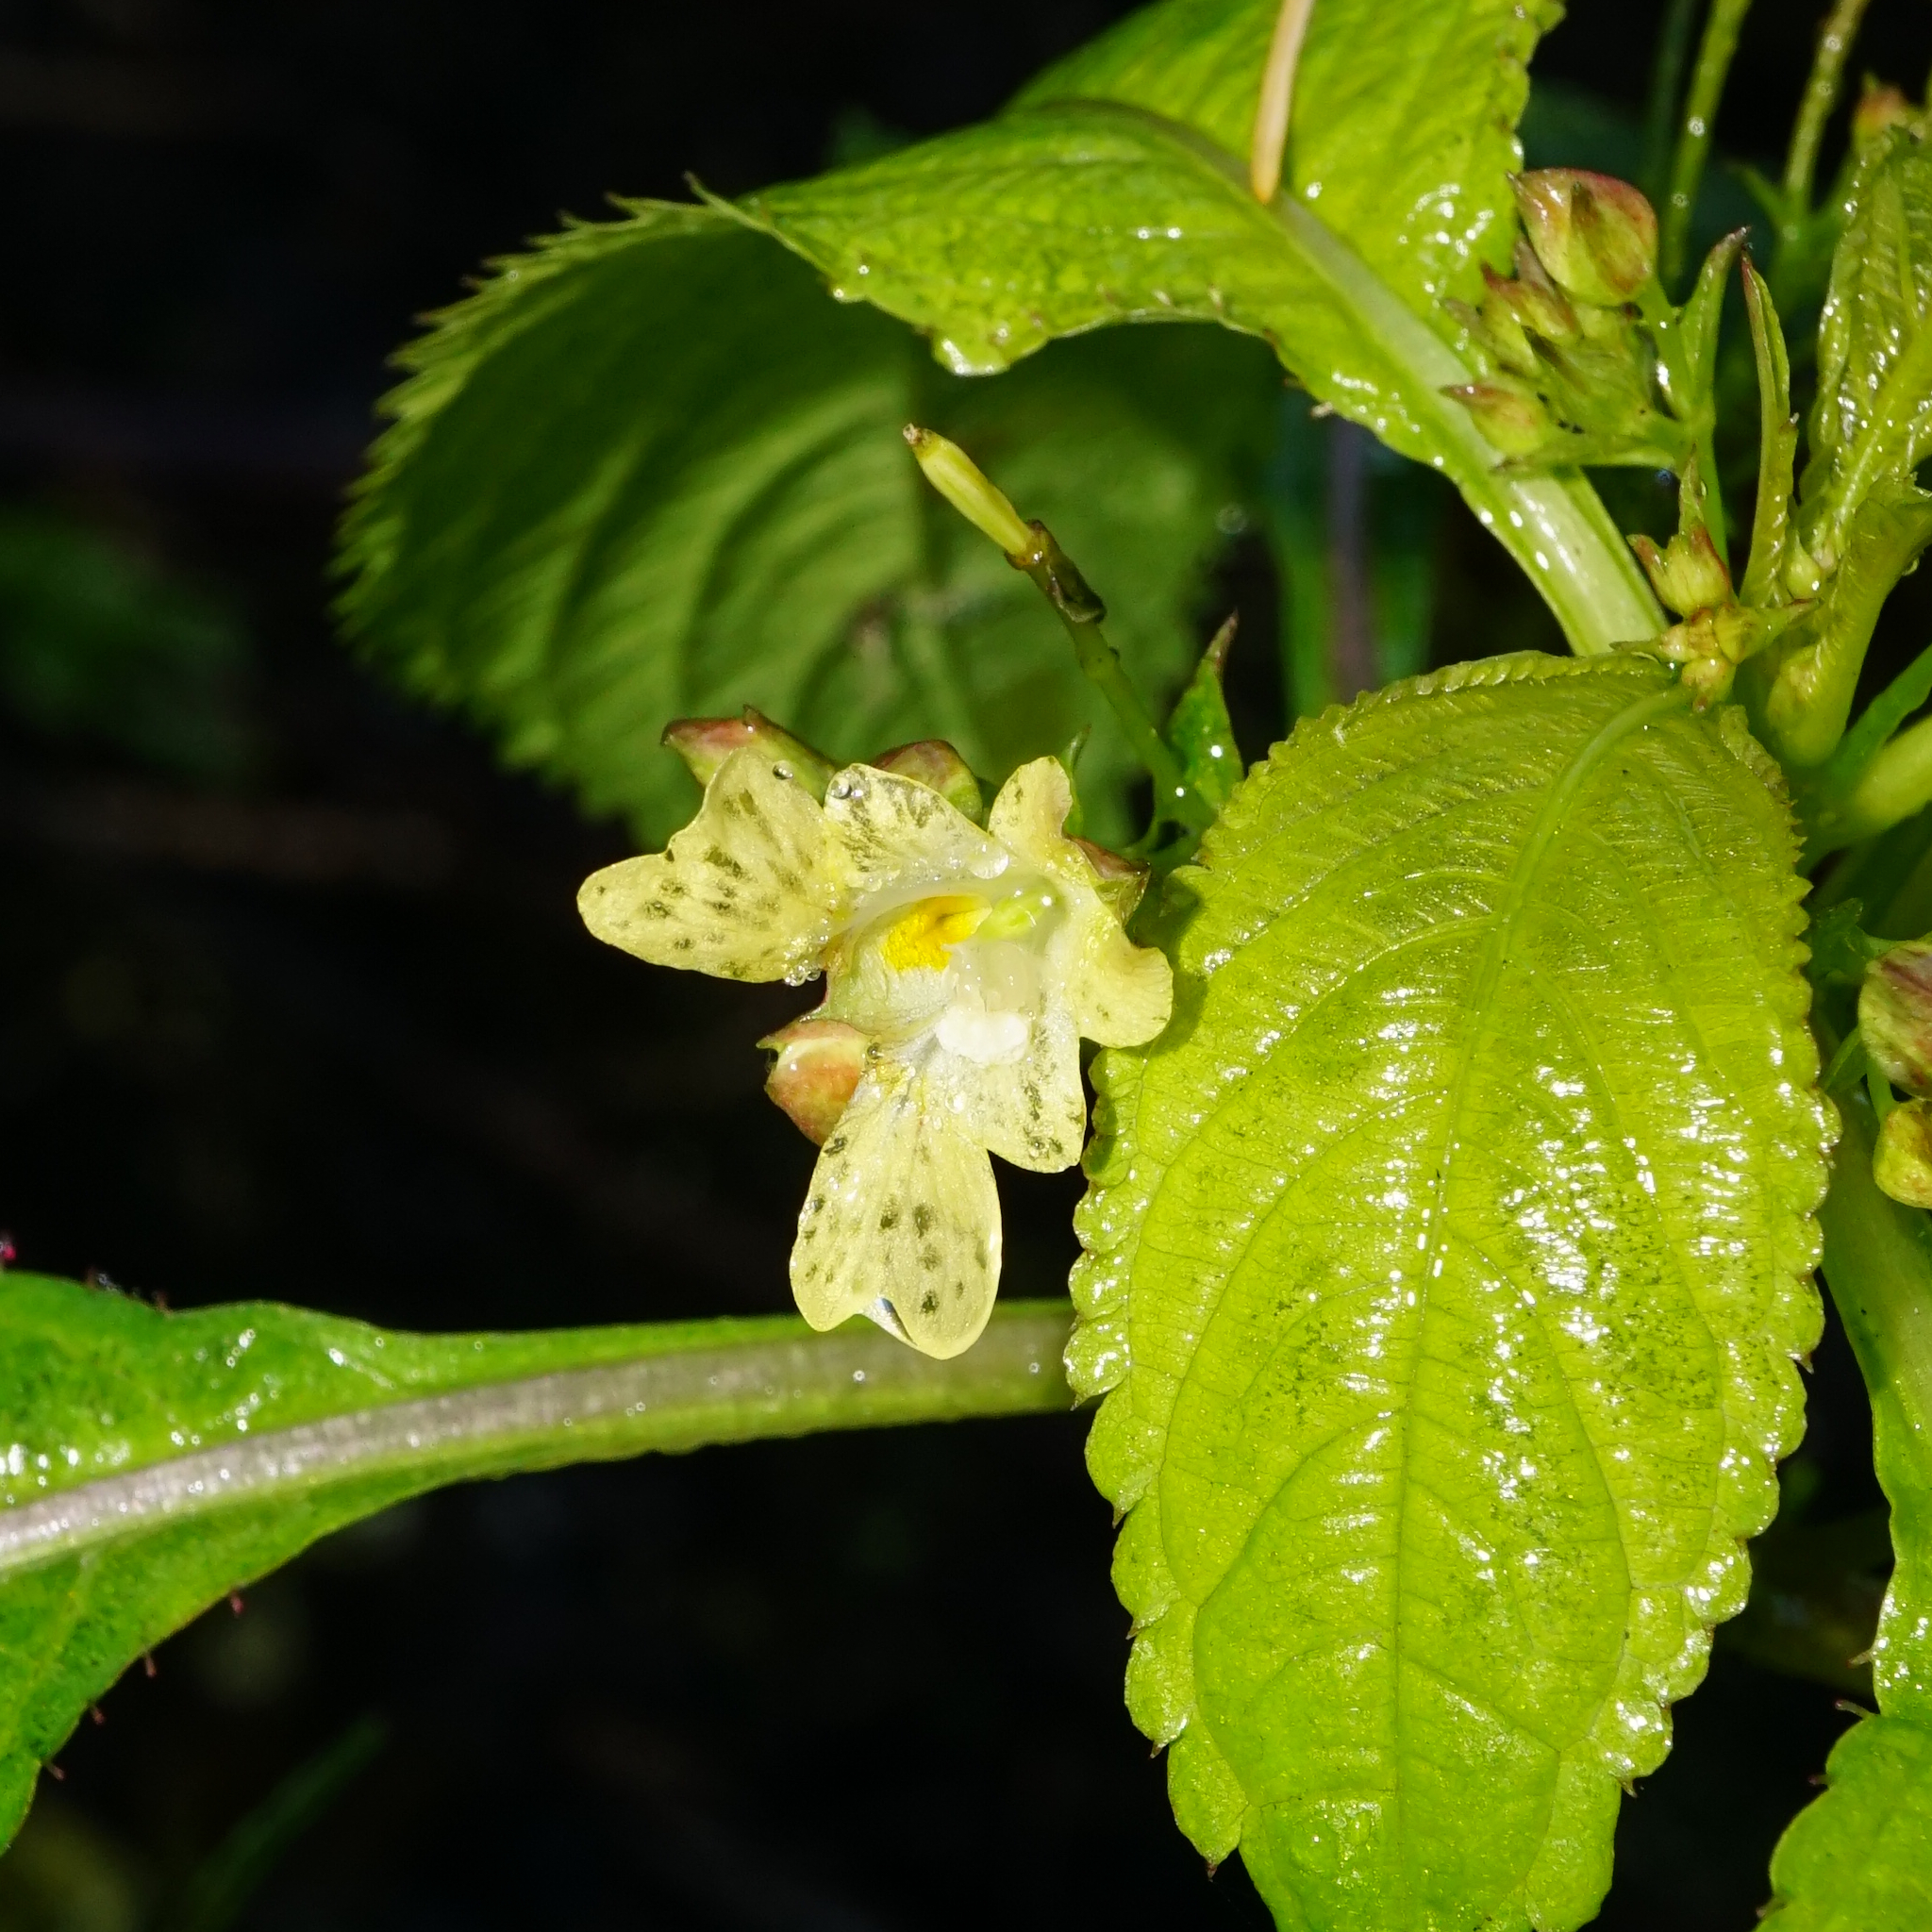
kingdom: Plantae
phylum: Tracheophyta
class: Magnoliopsida
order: Ericales
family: Balsaminaceae
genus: Impatiens
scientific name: Impatiens parviflora
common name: Small balsam
